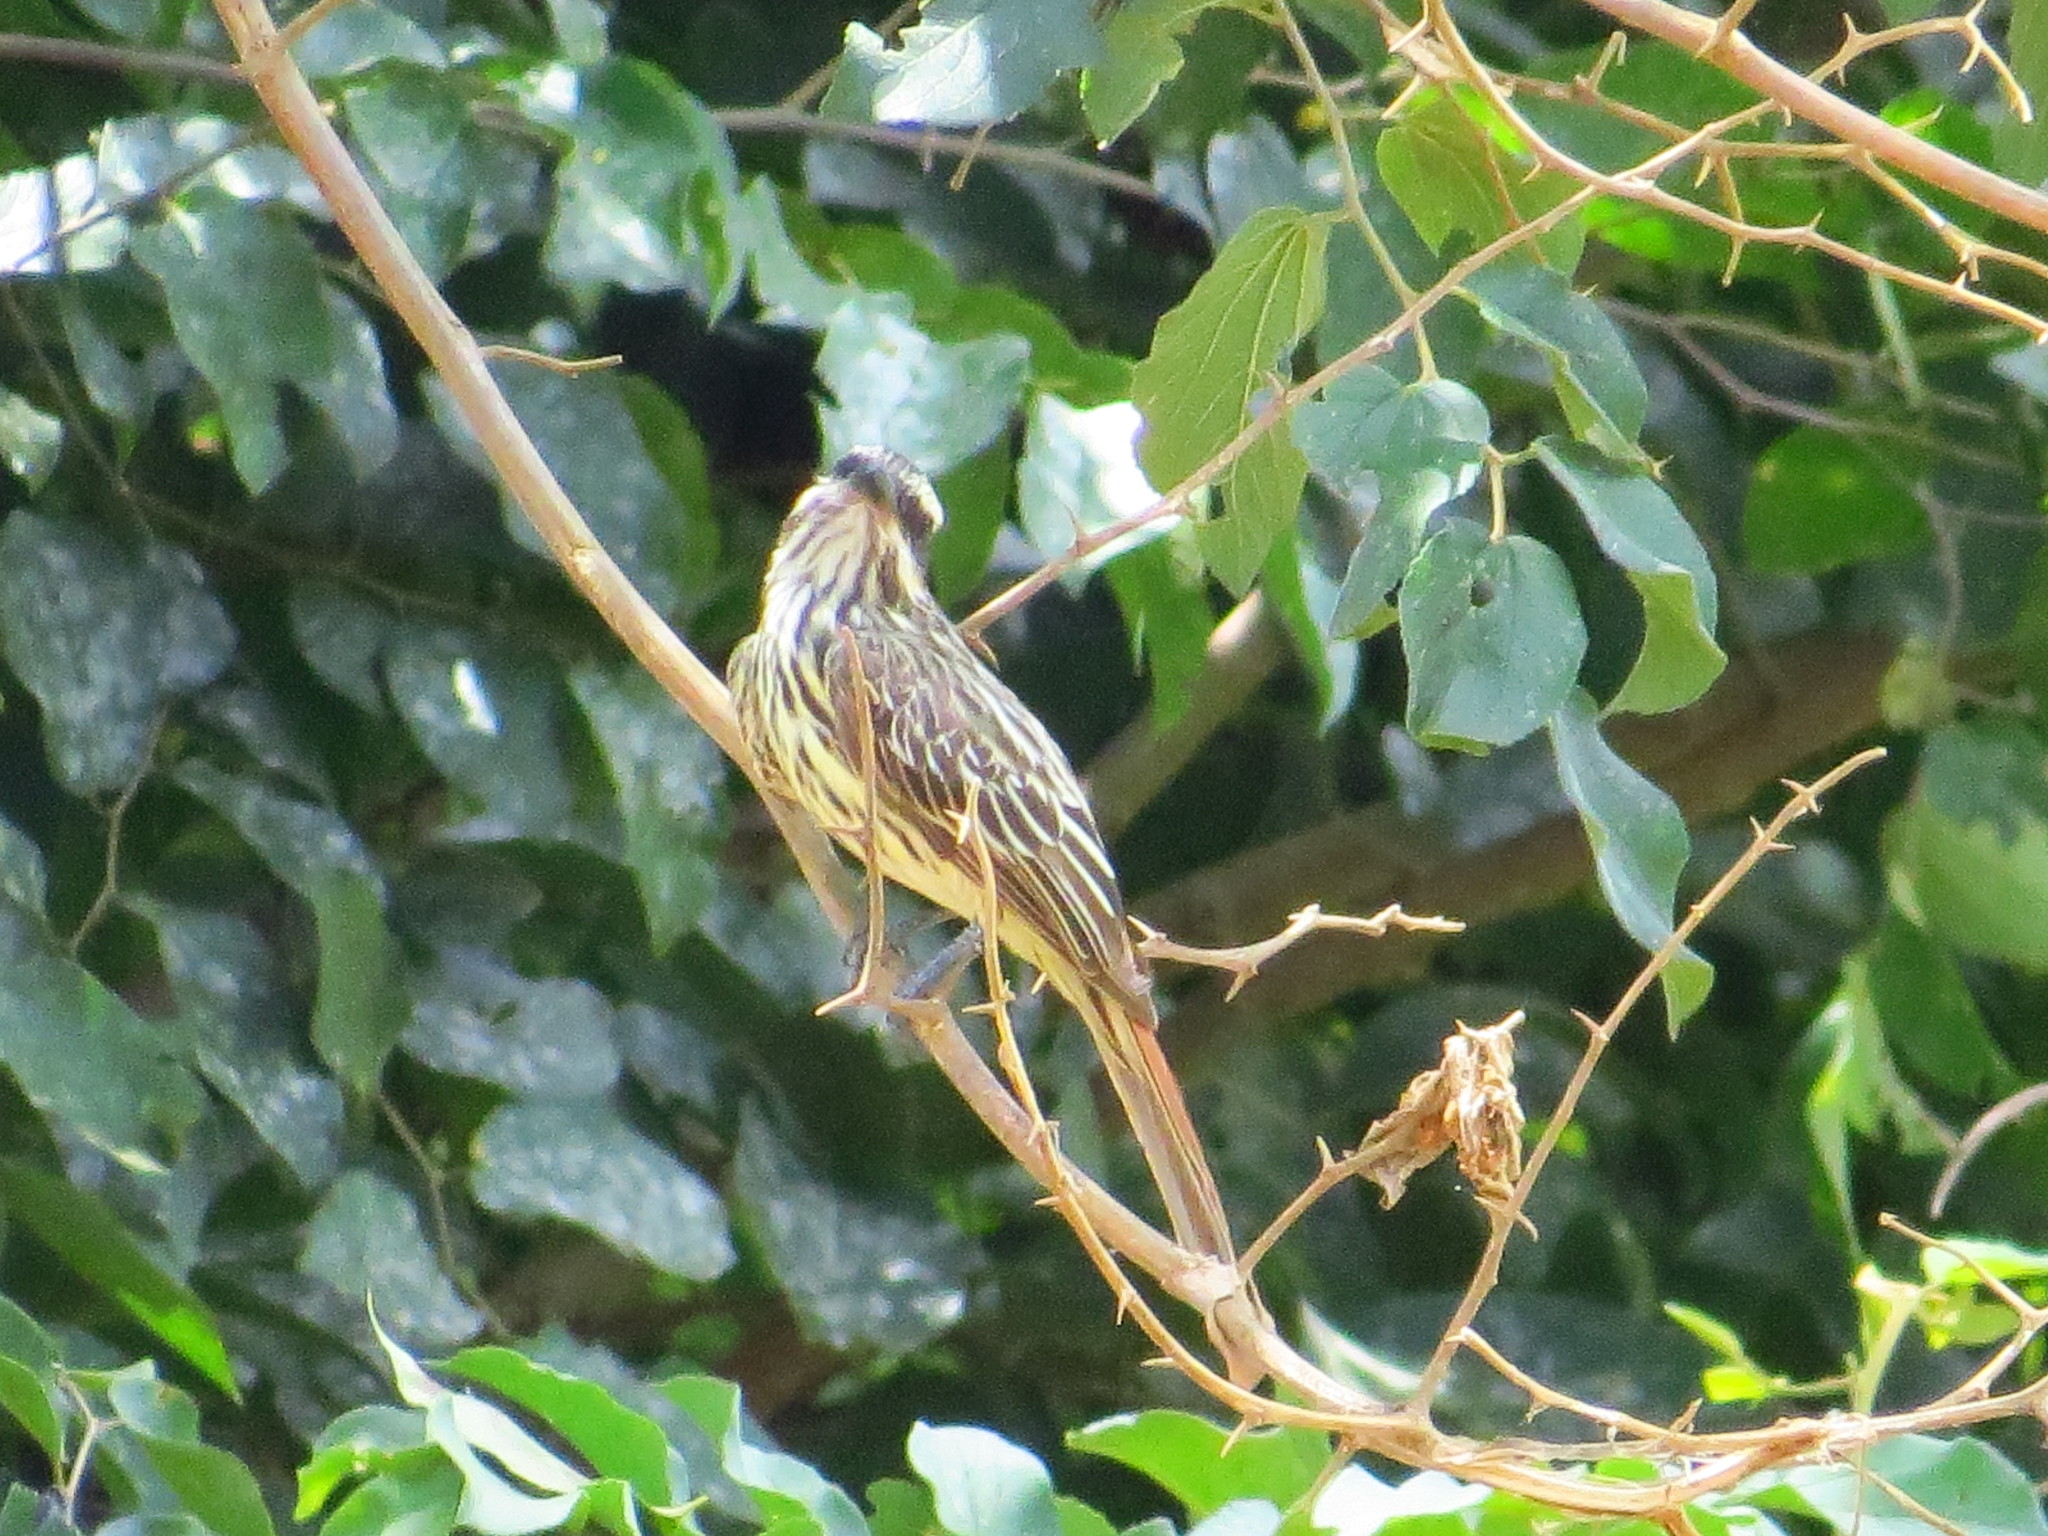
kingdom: Animalia
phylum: Chordata
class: Aves
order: Passeriformes
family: Tyrannidae
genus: Myiodynastes
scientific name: Myiodynastes maculatus
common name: Streaked flycatcher
